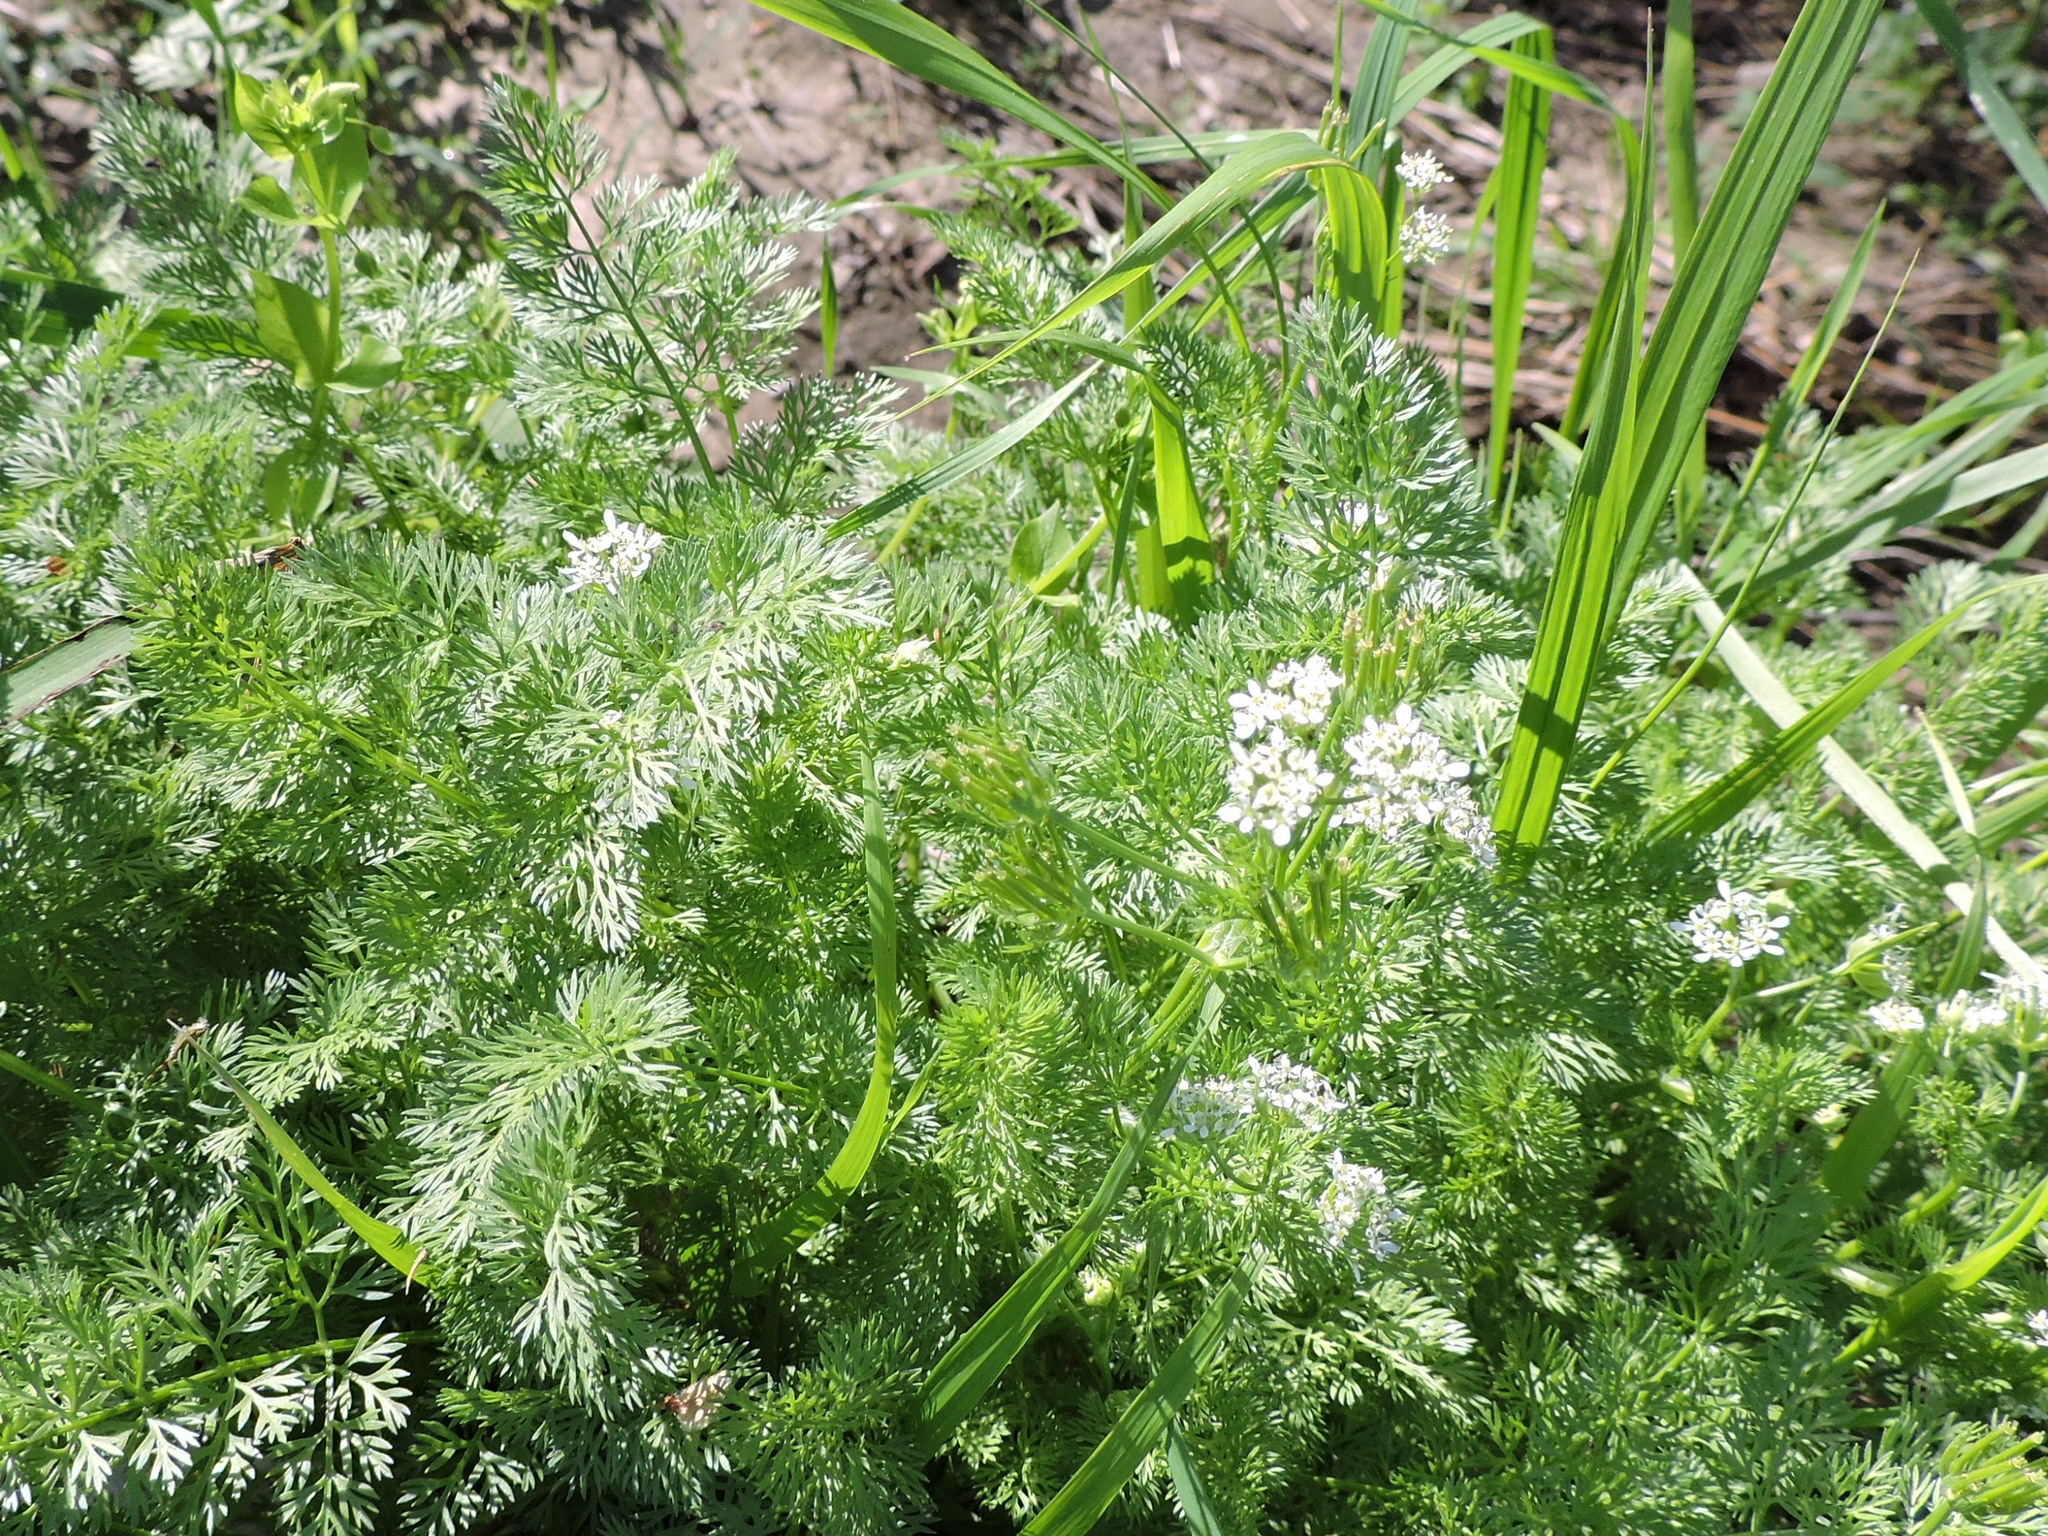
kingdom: Plantae
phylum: Tracheophyta
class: Magnoliopsida
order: Apiales
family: Apiaceae
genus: Scandix
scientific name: Scandix pecten-veneris
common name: Shepherd's-needle
